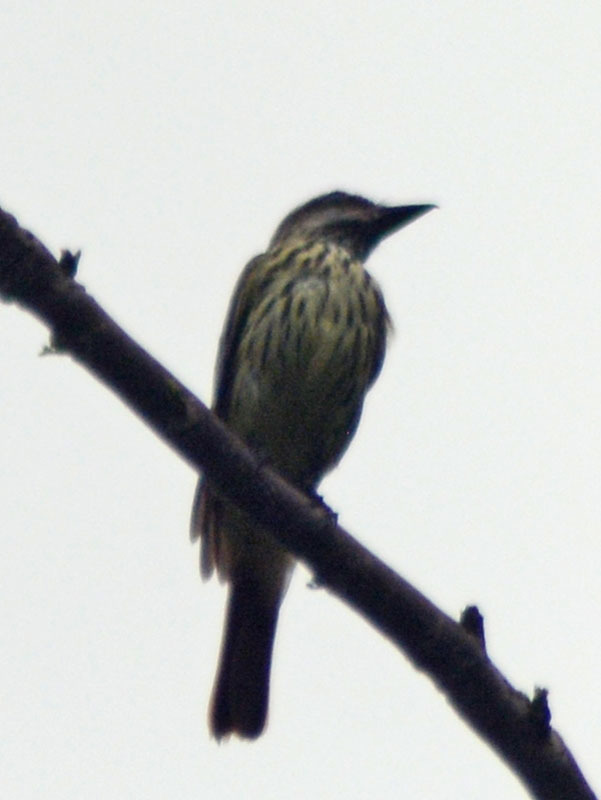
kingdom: Animalia
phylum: Chordata
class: Aves
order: Passeriformes
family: Tyrannidae
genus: Myiodynastes
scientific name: Myiodynastes luteiventris
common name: Sulphur-bellied flycatcher
